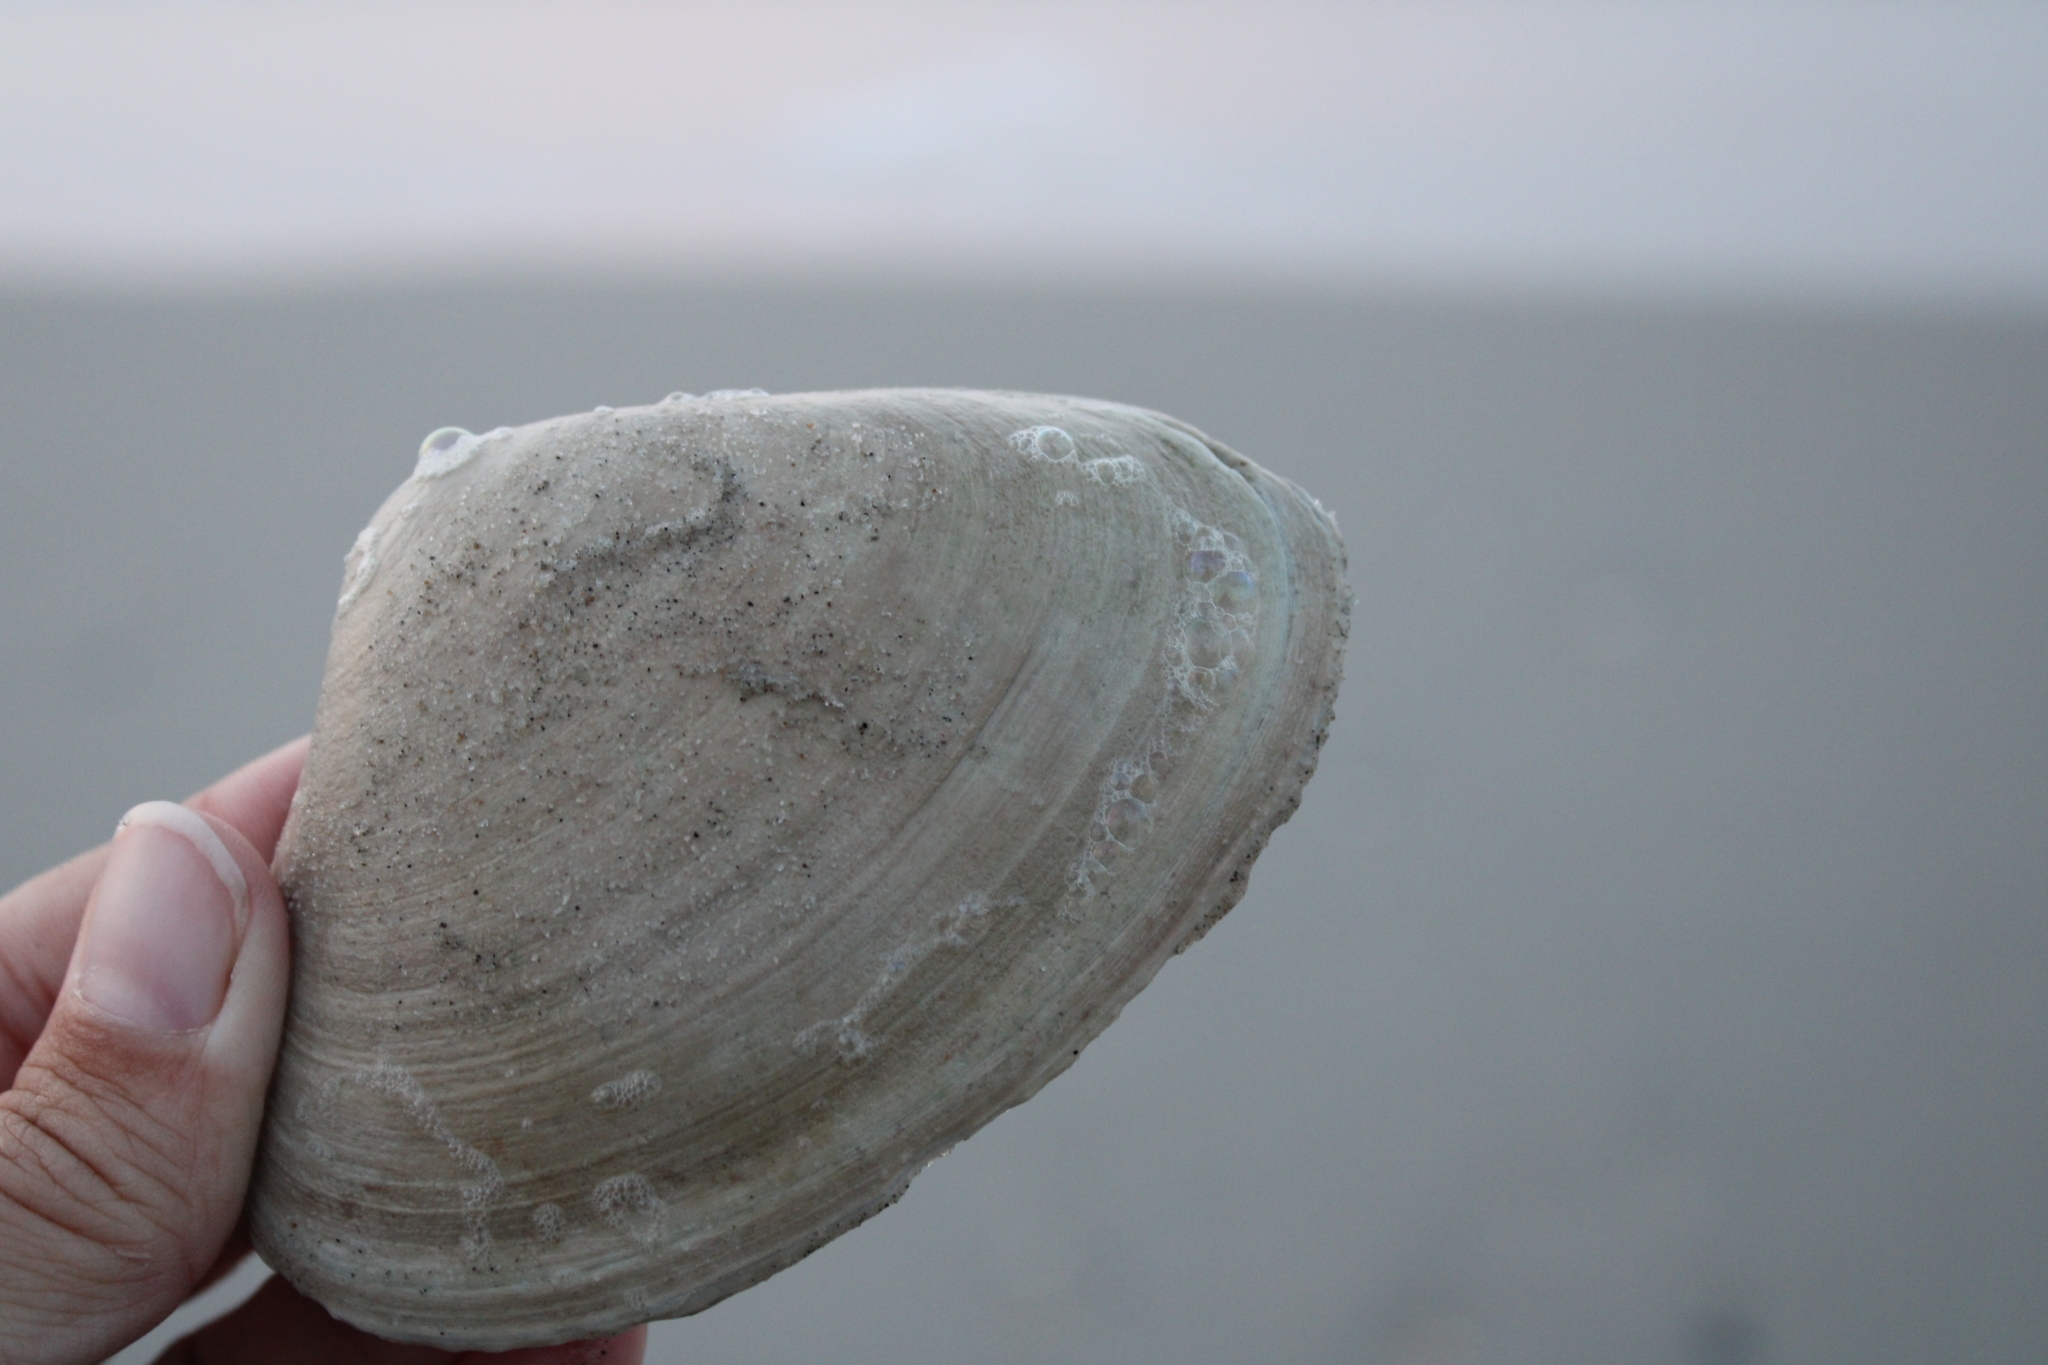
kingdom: Animalia
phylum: Mollusca
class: Bivalvia
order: Venerida
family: Mactridae
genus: Spisula
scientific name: Spisula solidissima
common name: Atlantic surf clam
